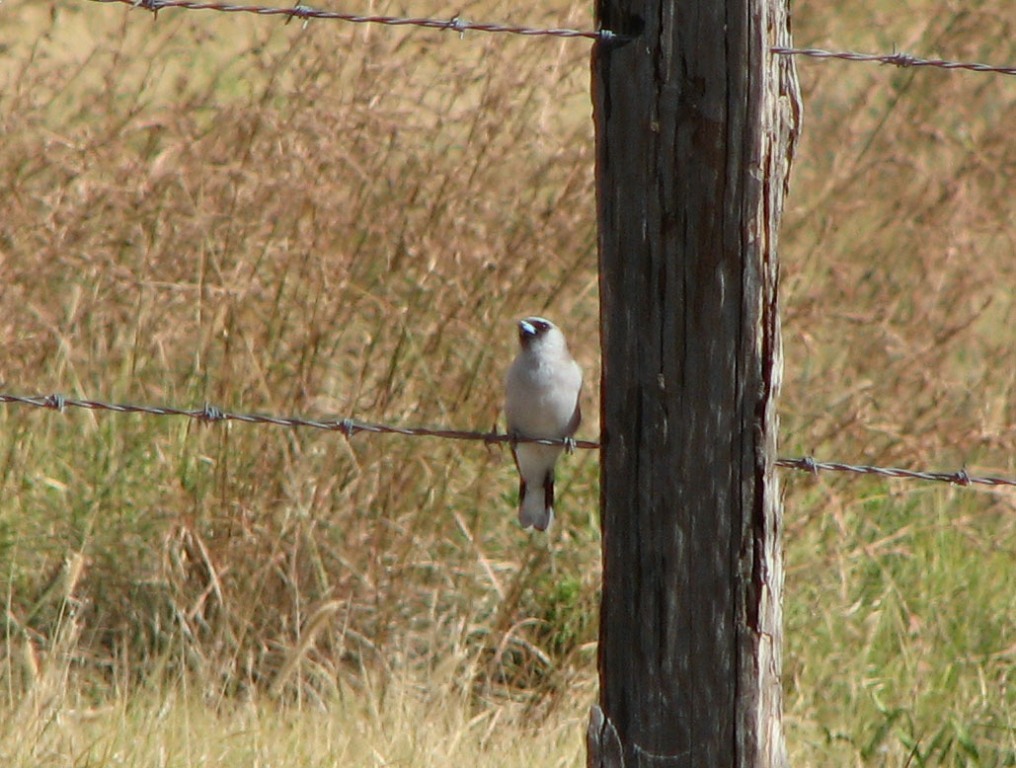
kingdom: Animalia
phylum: Chordata
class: Aves
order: Passeriformes
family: Artamidae
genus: Artamus
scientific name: Artamus cinereus
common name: Black-faced woodswallow
